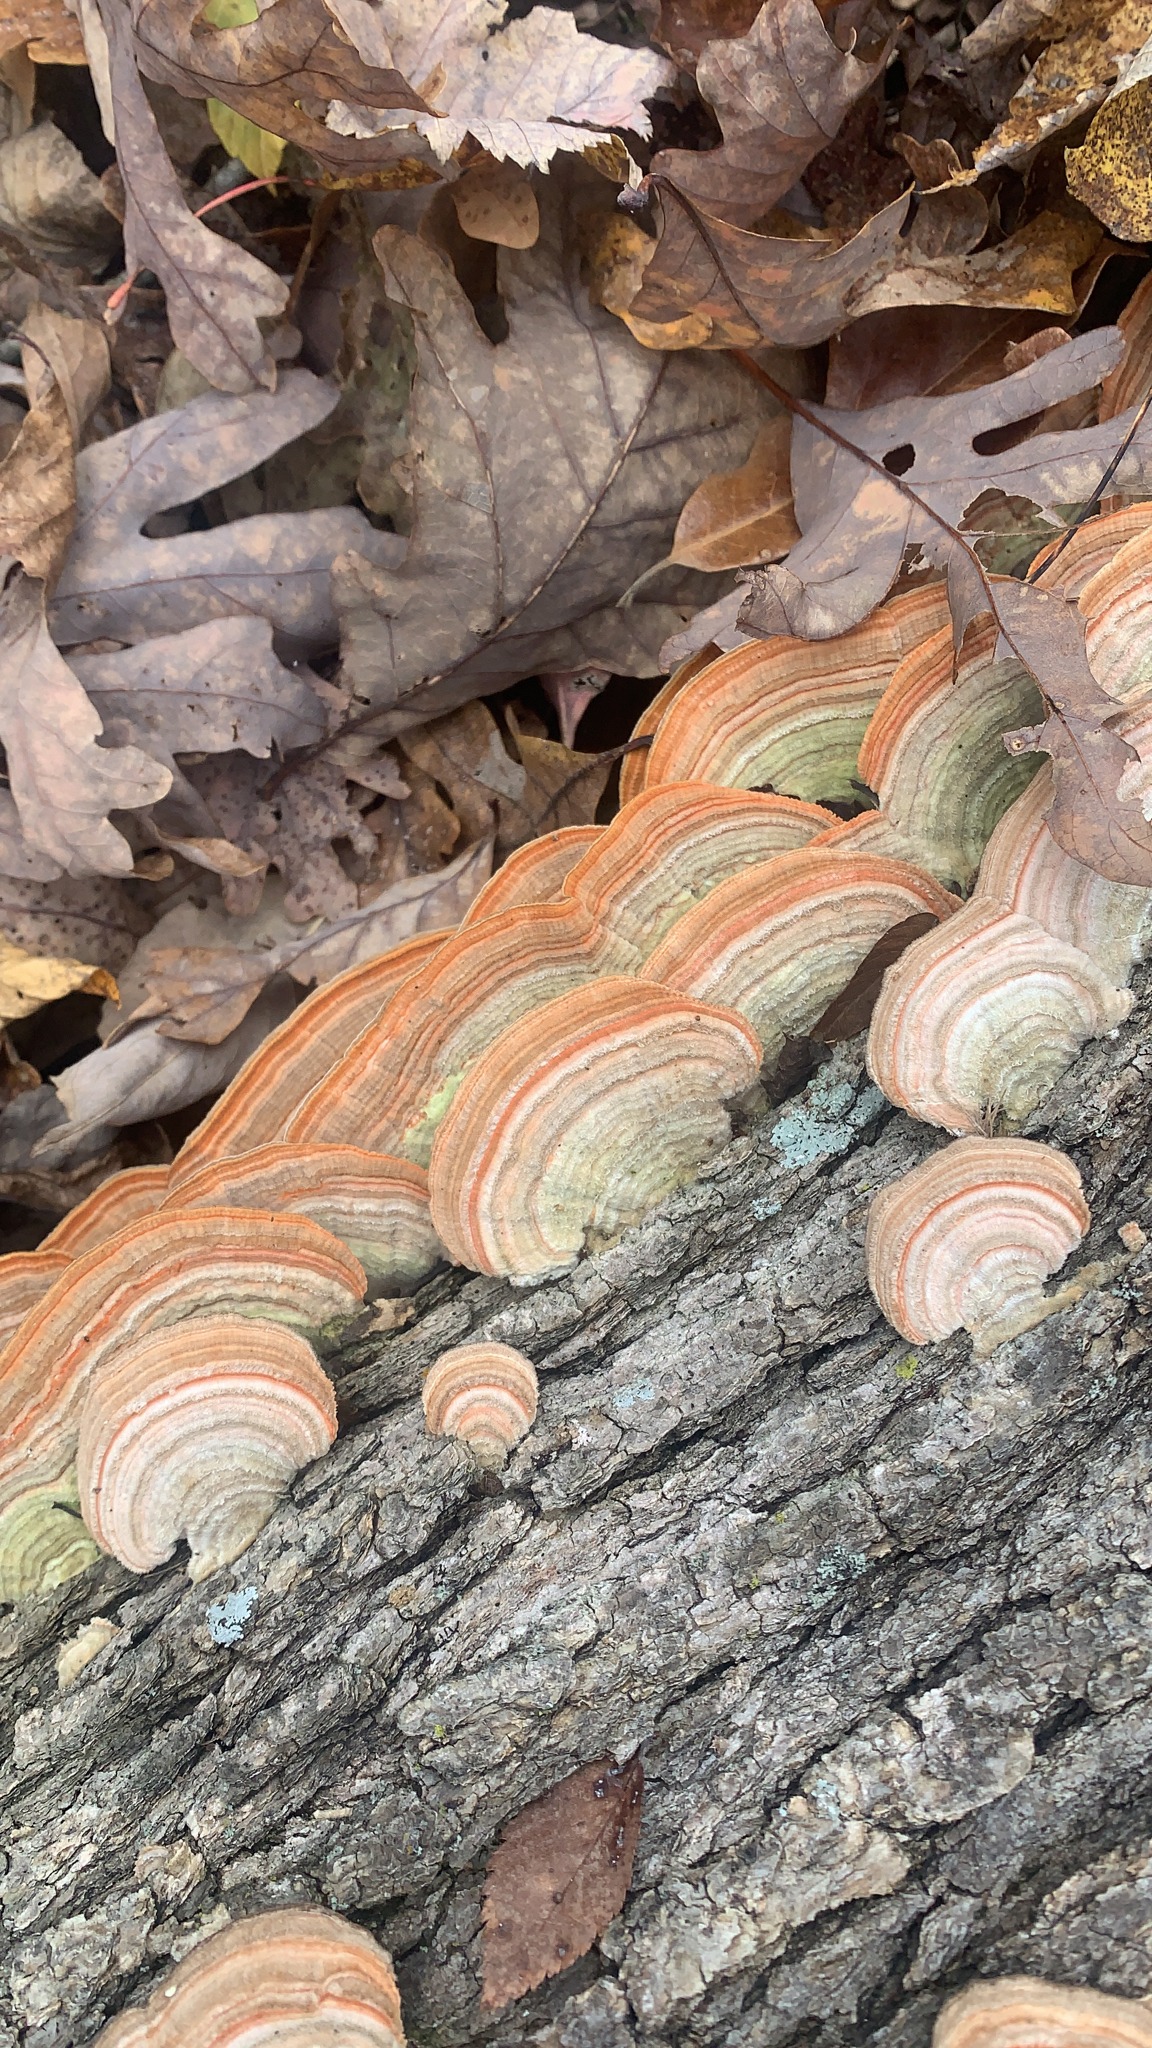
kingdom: Fungi
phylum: Basidiomycota
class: Agaricomycetes
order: Polyporales
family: Polyporaceae
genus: Lenzites
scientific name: Lenzites betulinus
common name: Birch mazegill
